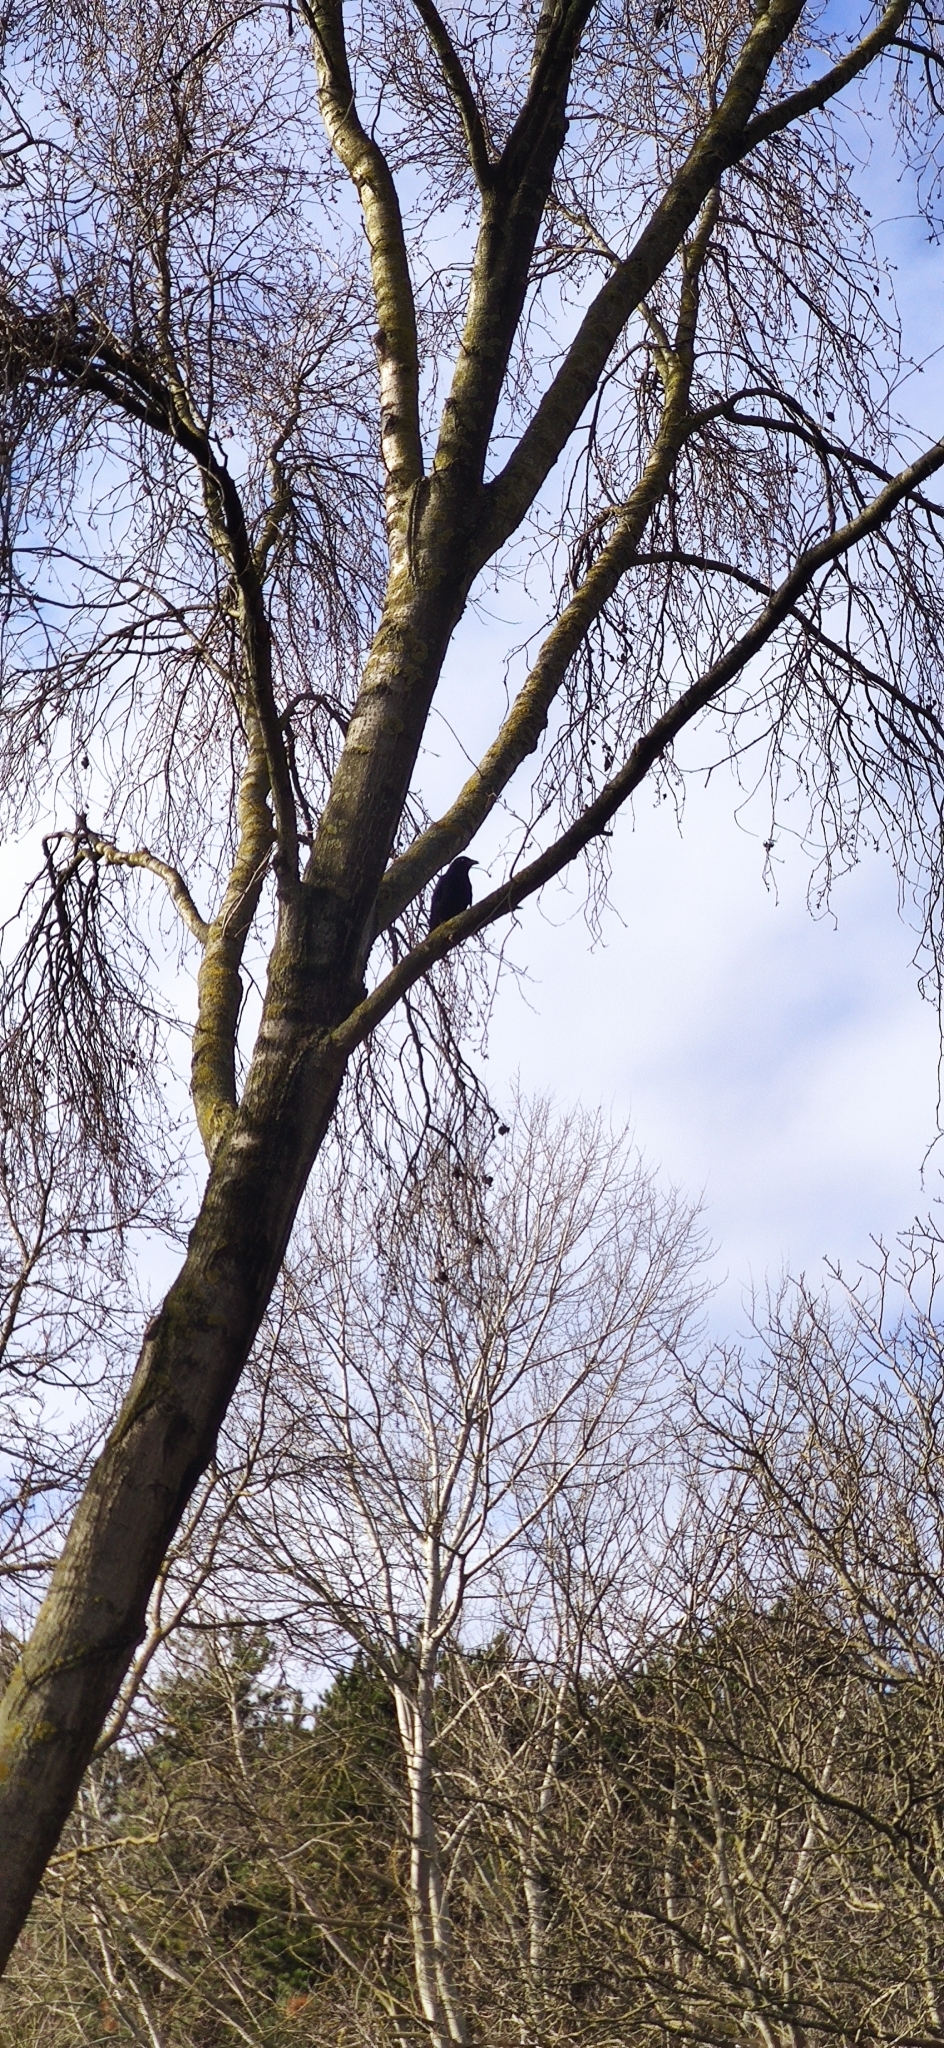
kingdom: Animalia
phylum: Chordata
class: Aves
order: Passeriformes
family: Corvidae
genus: Corvus
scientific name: Corvus corone
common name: Carrion crow
